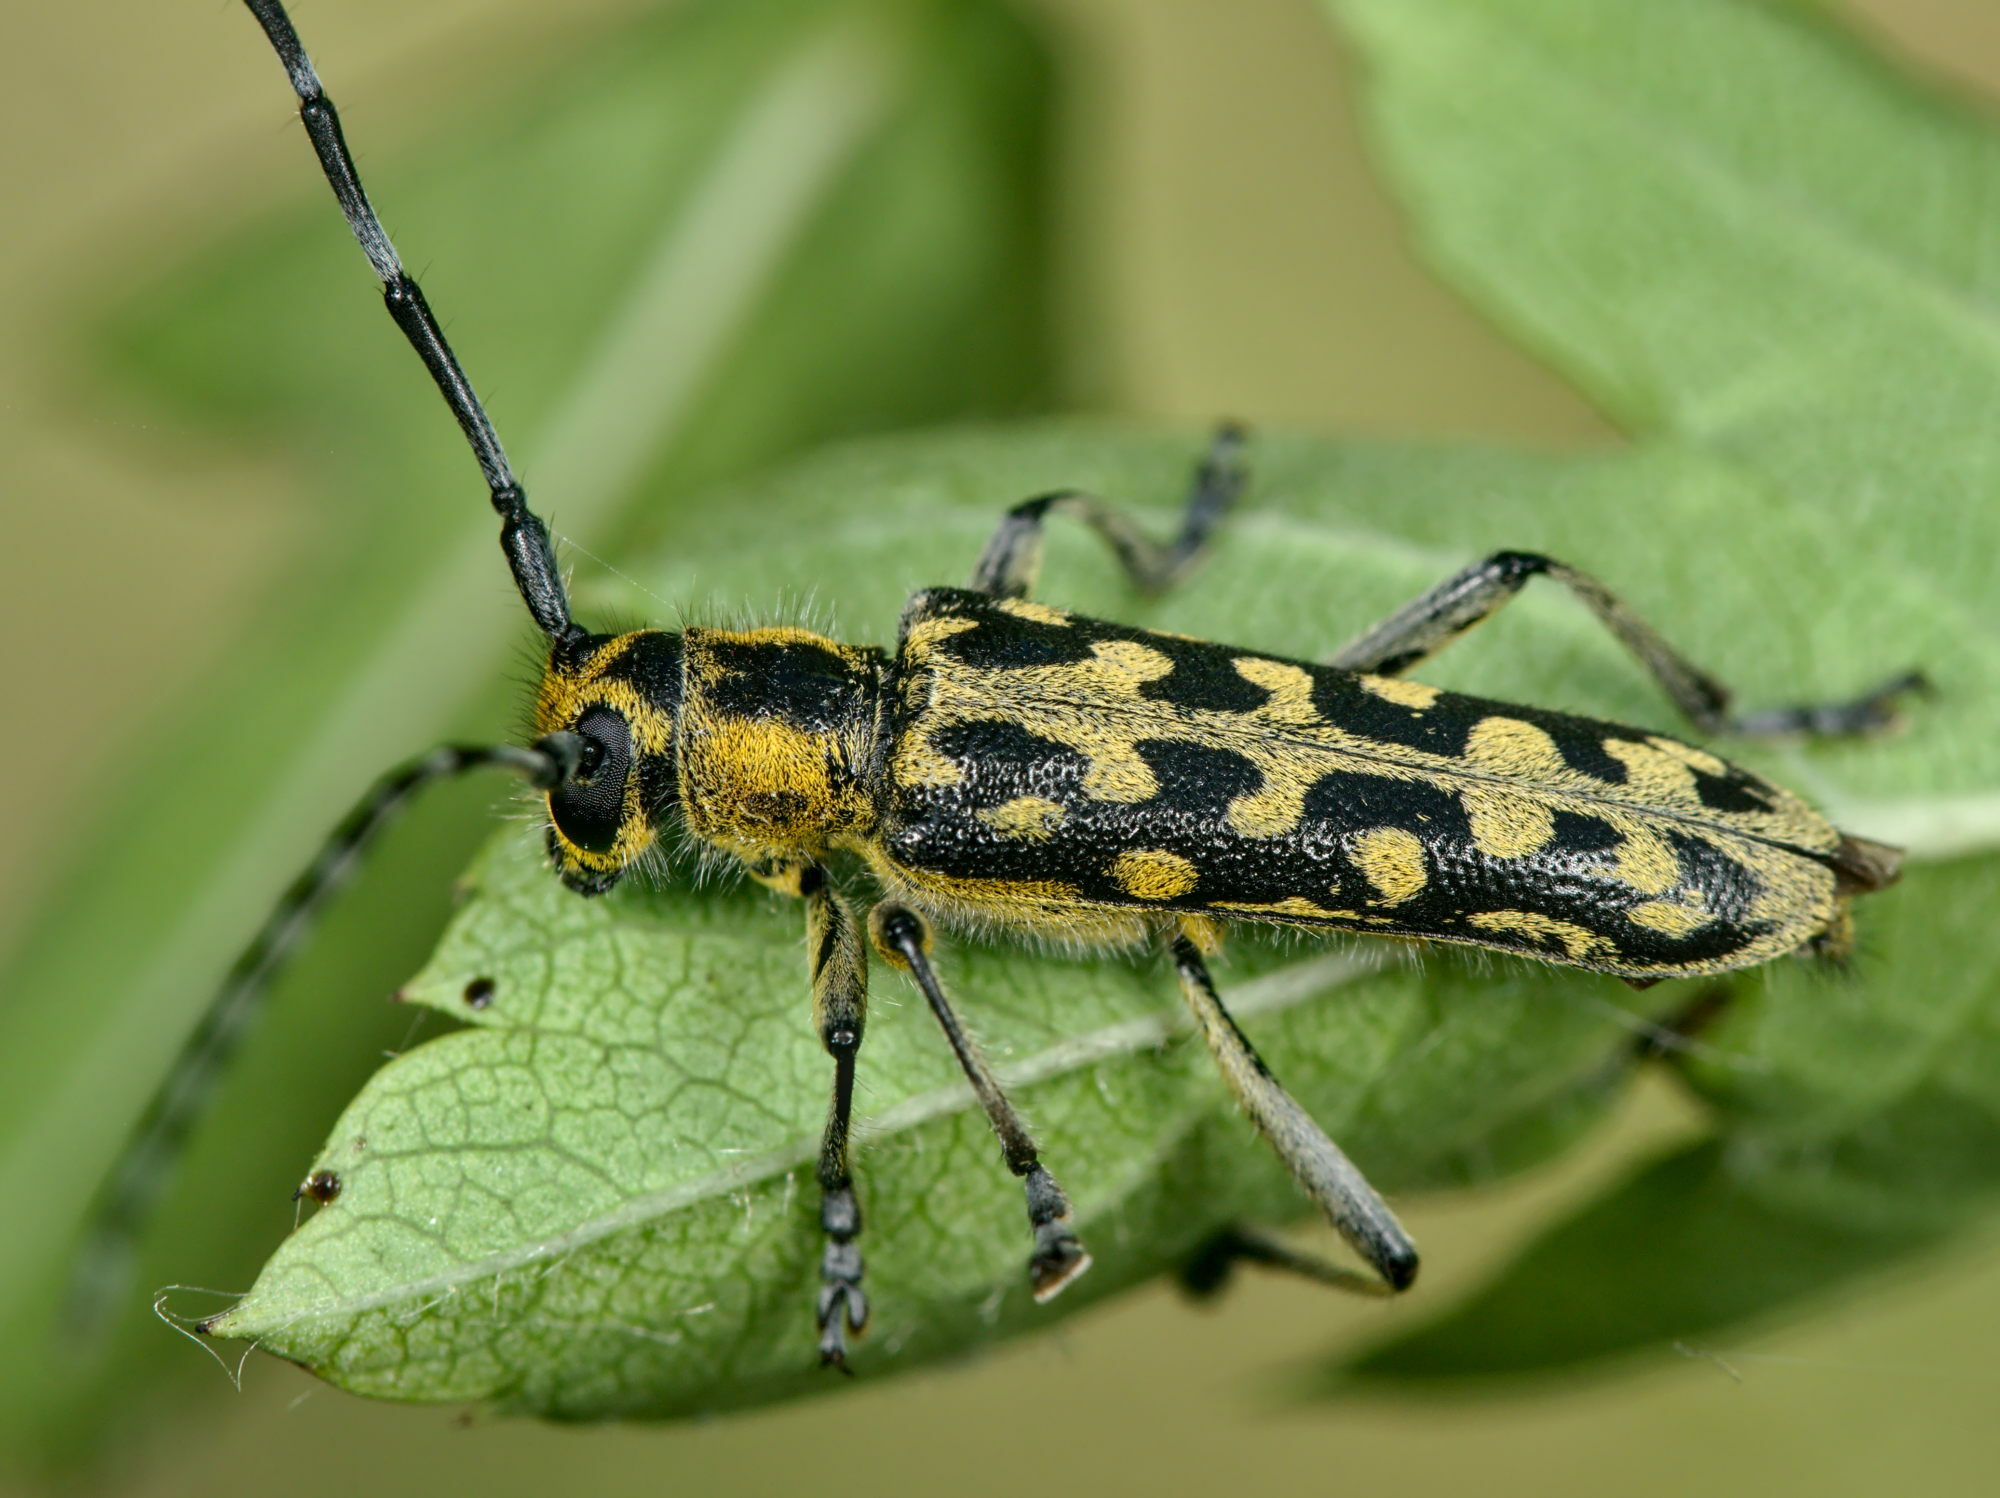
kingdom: Animalia
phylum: Arthropoda
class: Insecta
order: Coleoptera
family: Cerambycidae
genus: Saperda
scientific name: Saperda scalaris
